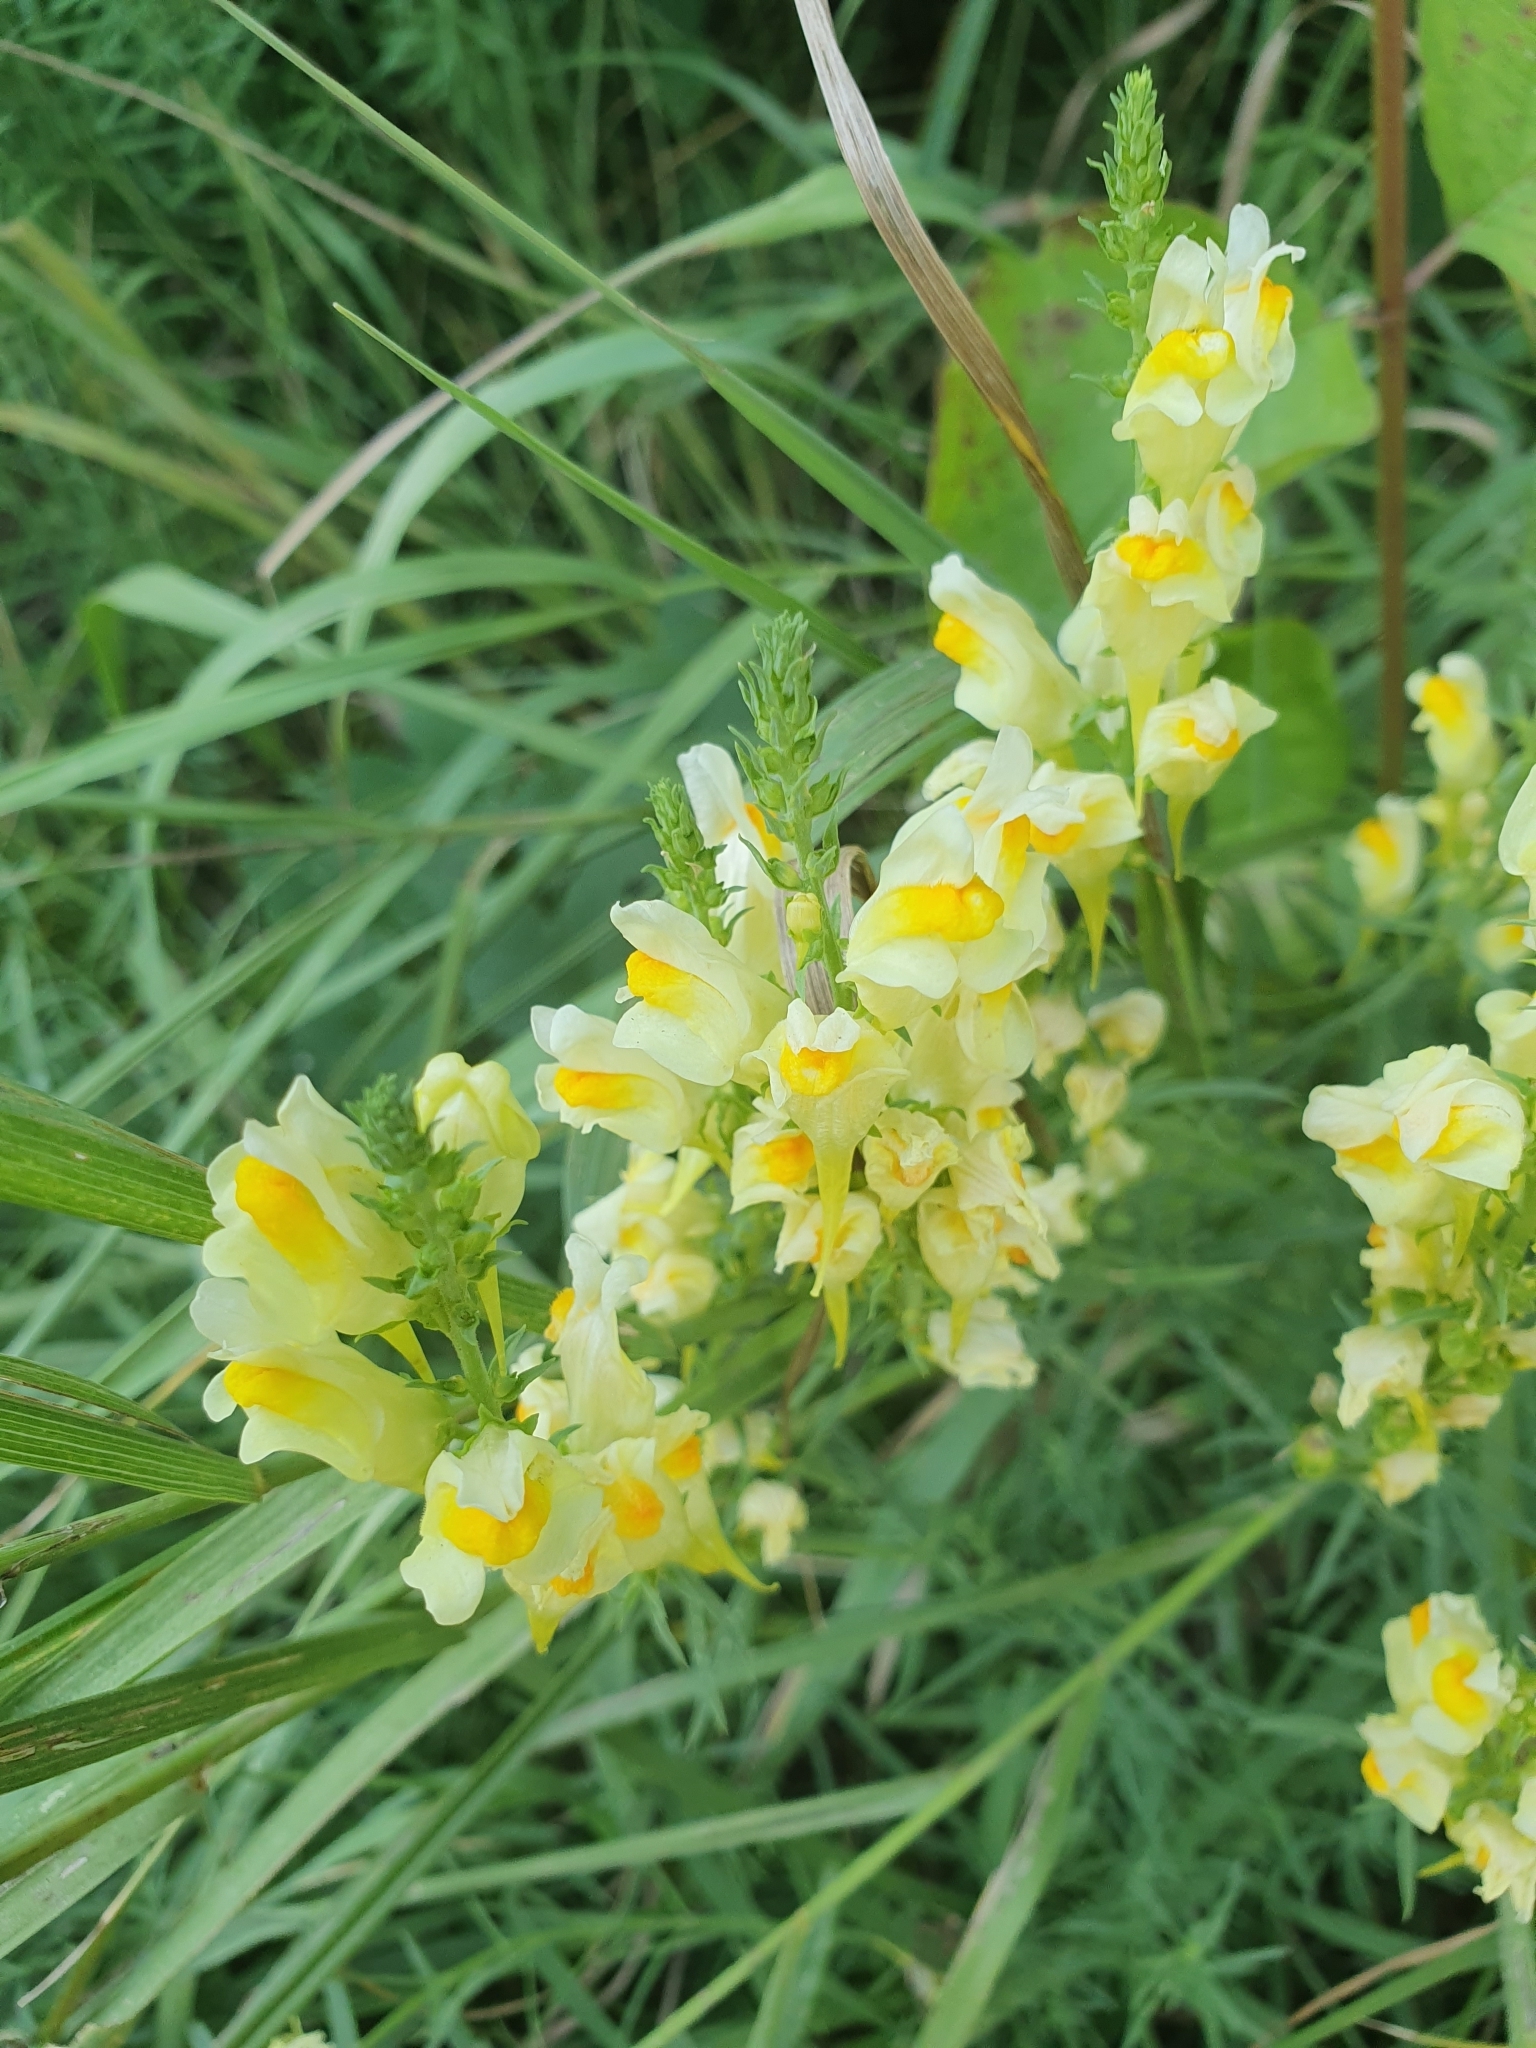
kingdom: Plantae
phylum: Tracheophyta
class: Magnoliopsida
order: Lamiales
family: Plantaginaceae
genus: Linaria
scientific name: Linaria vulgaris
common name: Butter and eggs
